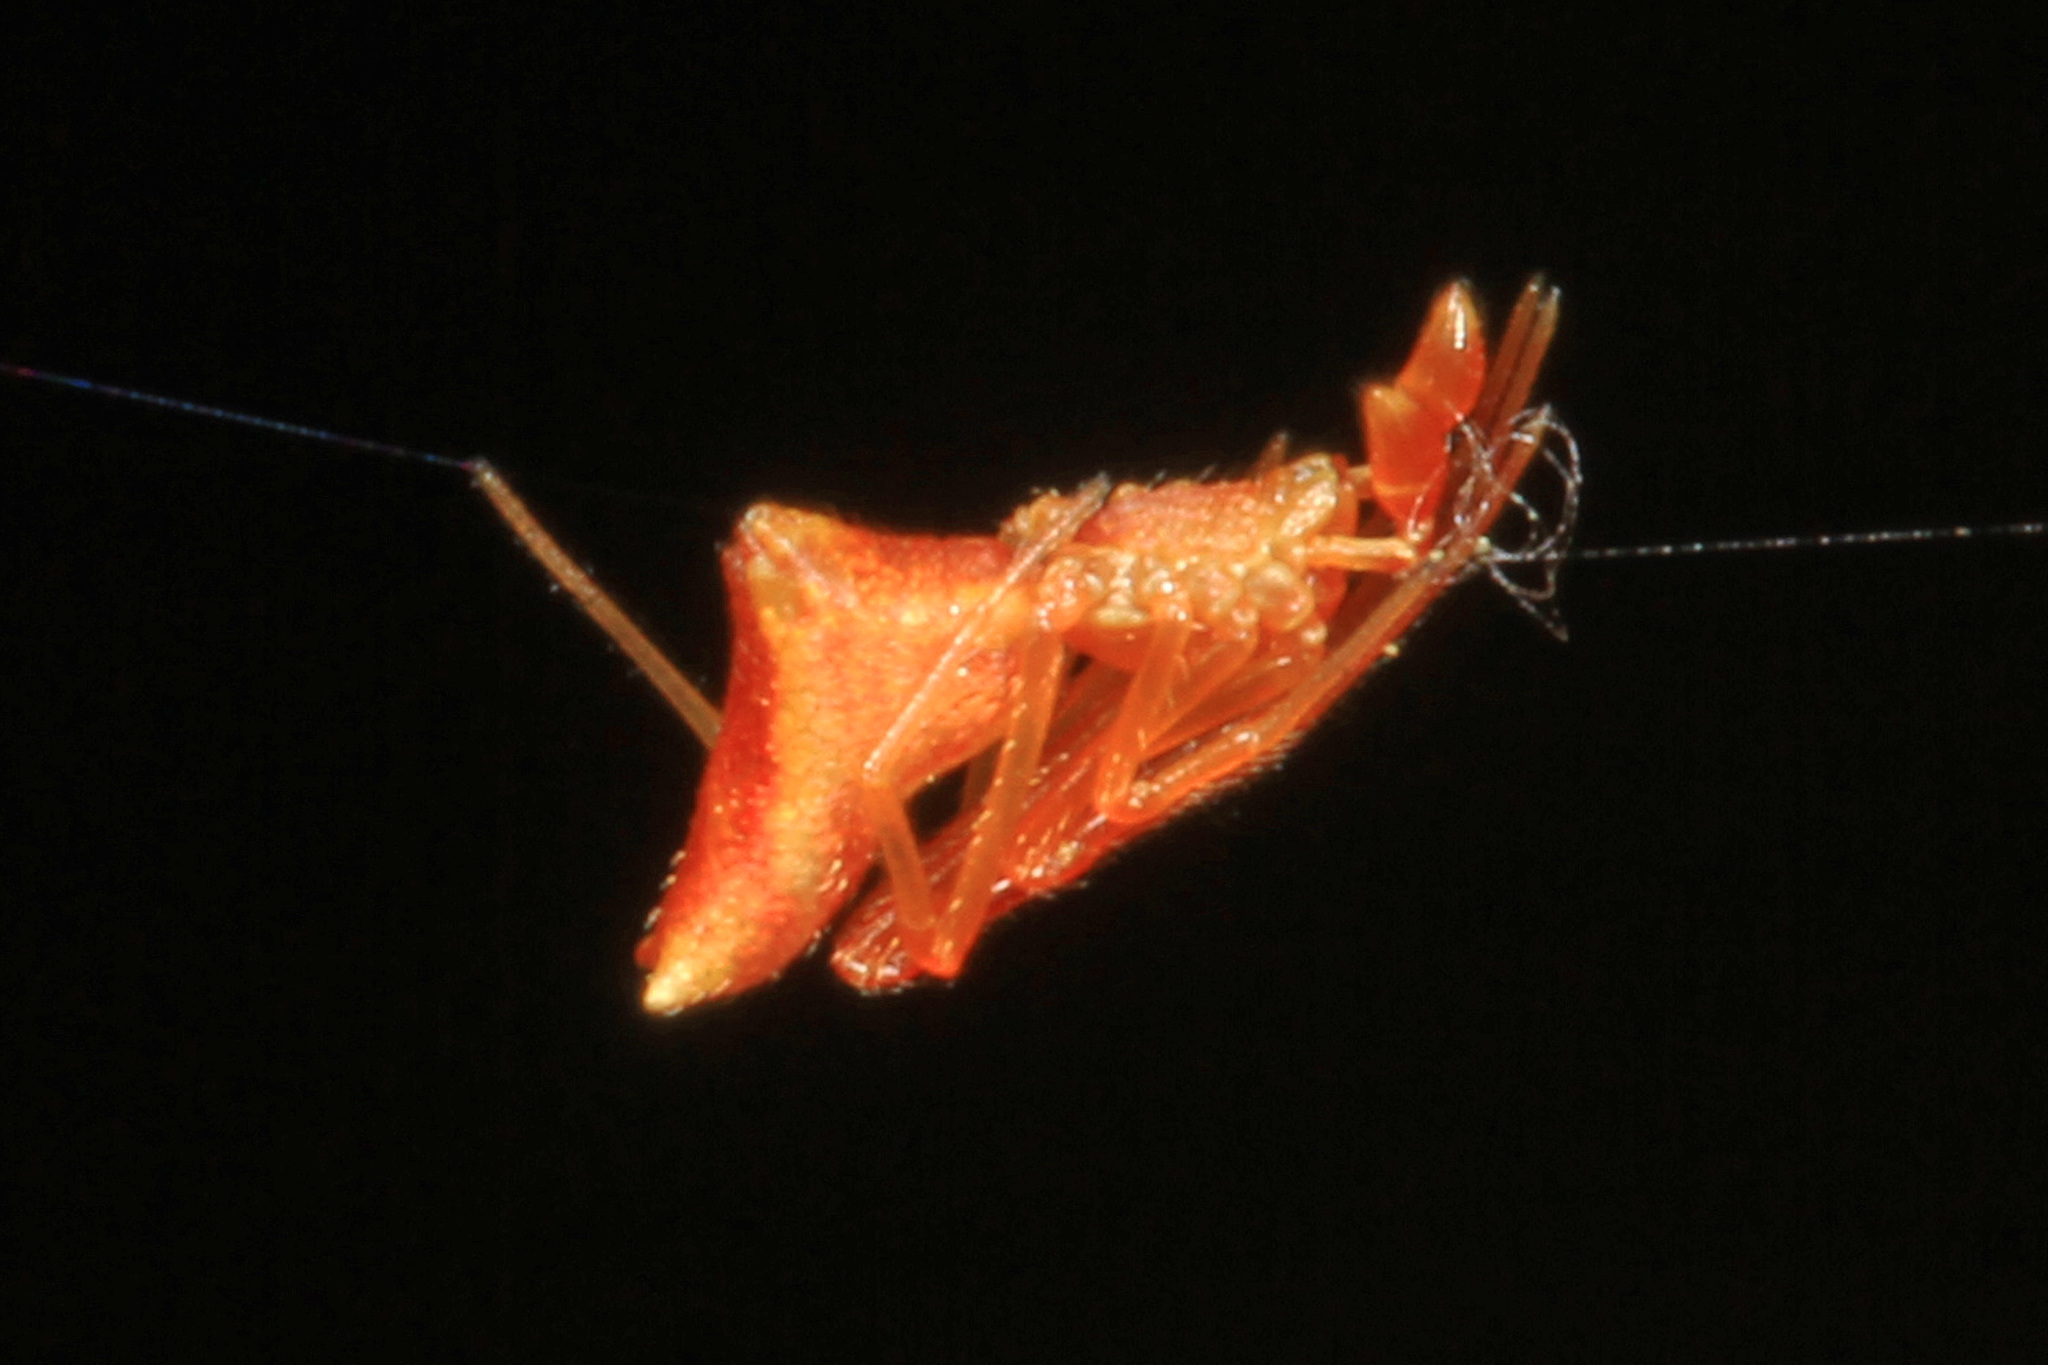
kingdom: Animalia
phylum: Arthropoda
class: Arachnida
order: Araneae
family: Theridiidae
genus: Neospintharus
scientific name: Neospintharus trigonum
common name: Horned parasitic cobweaver
